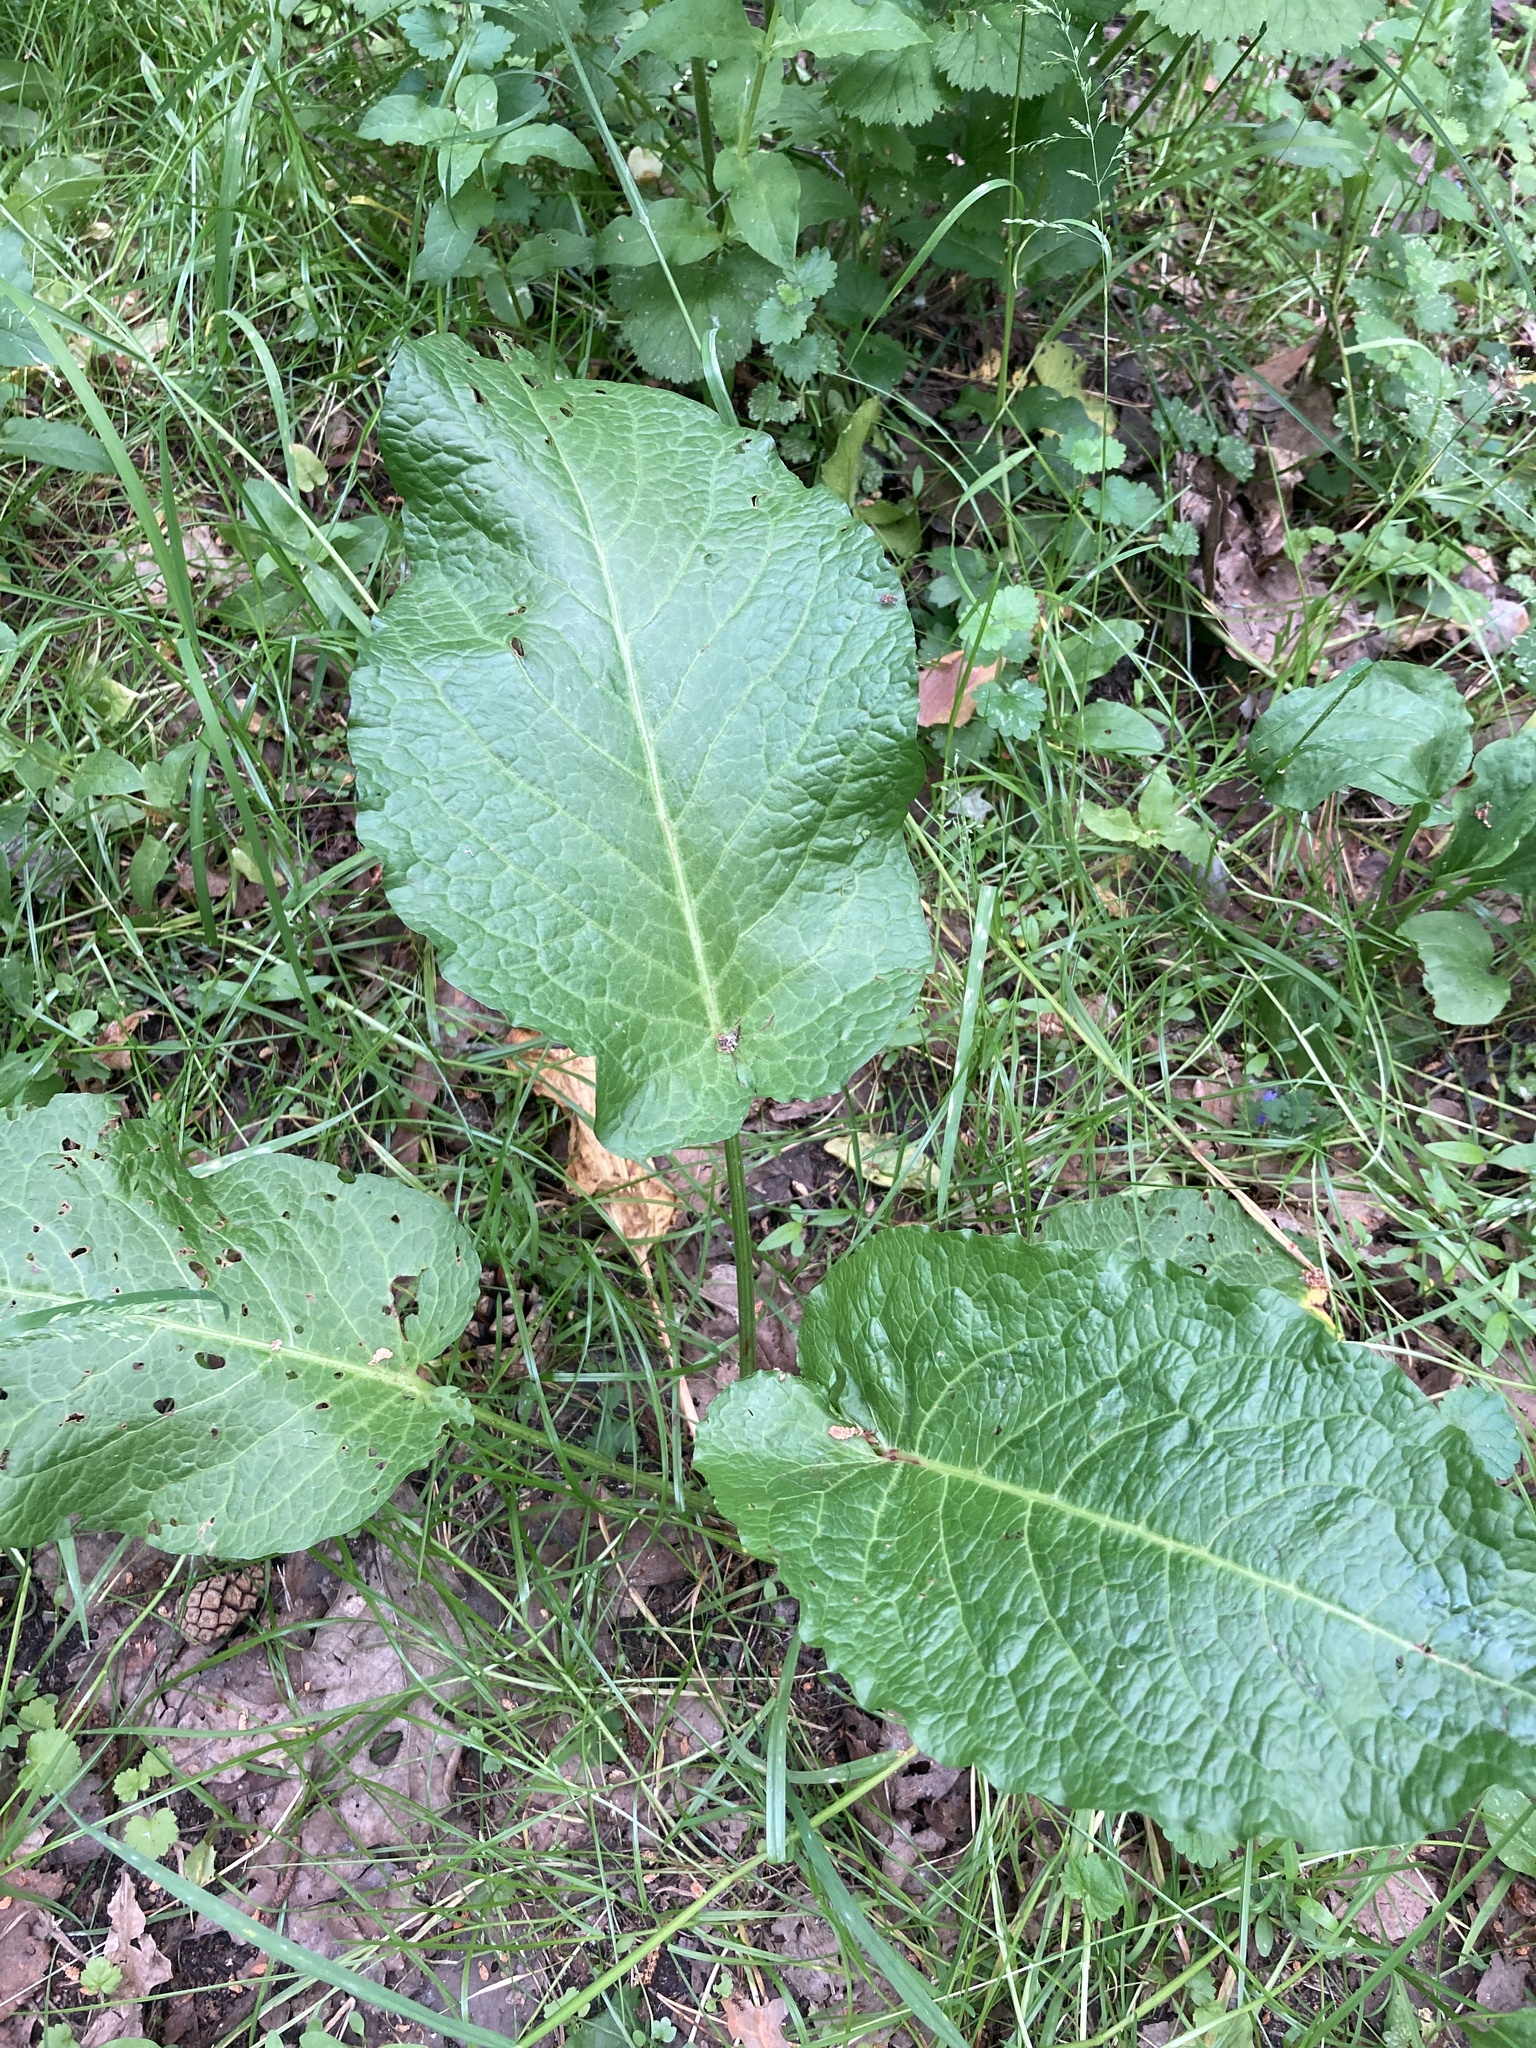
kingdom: Plantae
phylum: Tracheophyta
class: Magnoliopsida
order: Caryophyllales
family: Polygonaceae
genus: Rumex
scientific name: Rumex obtusifolius
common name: Bitter dock
